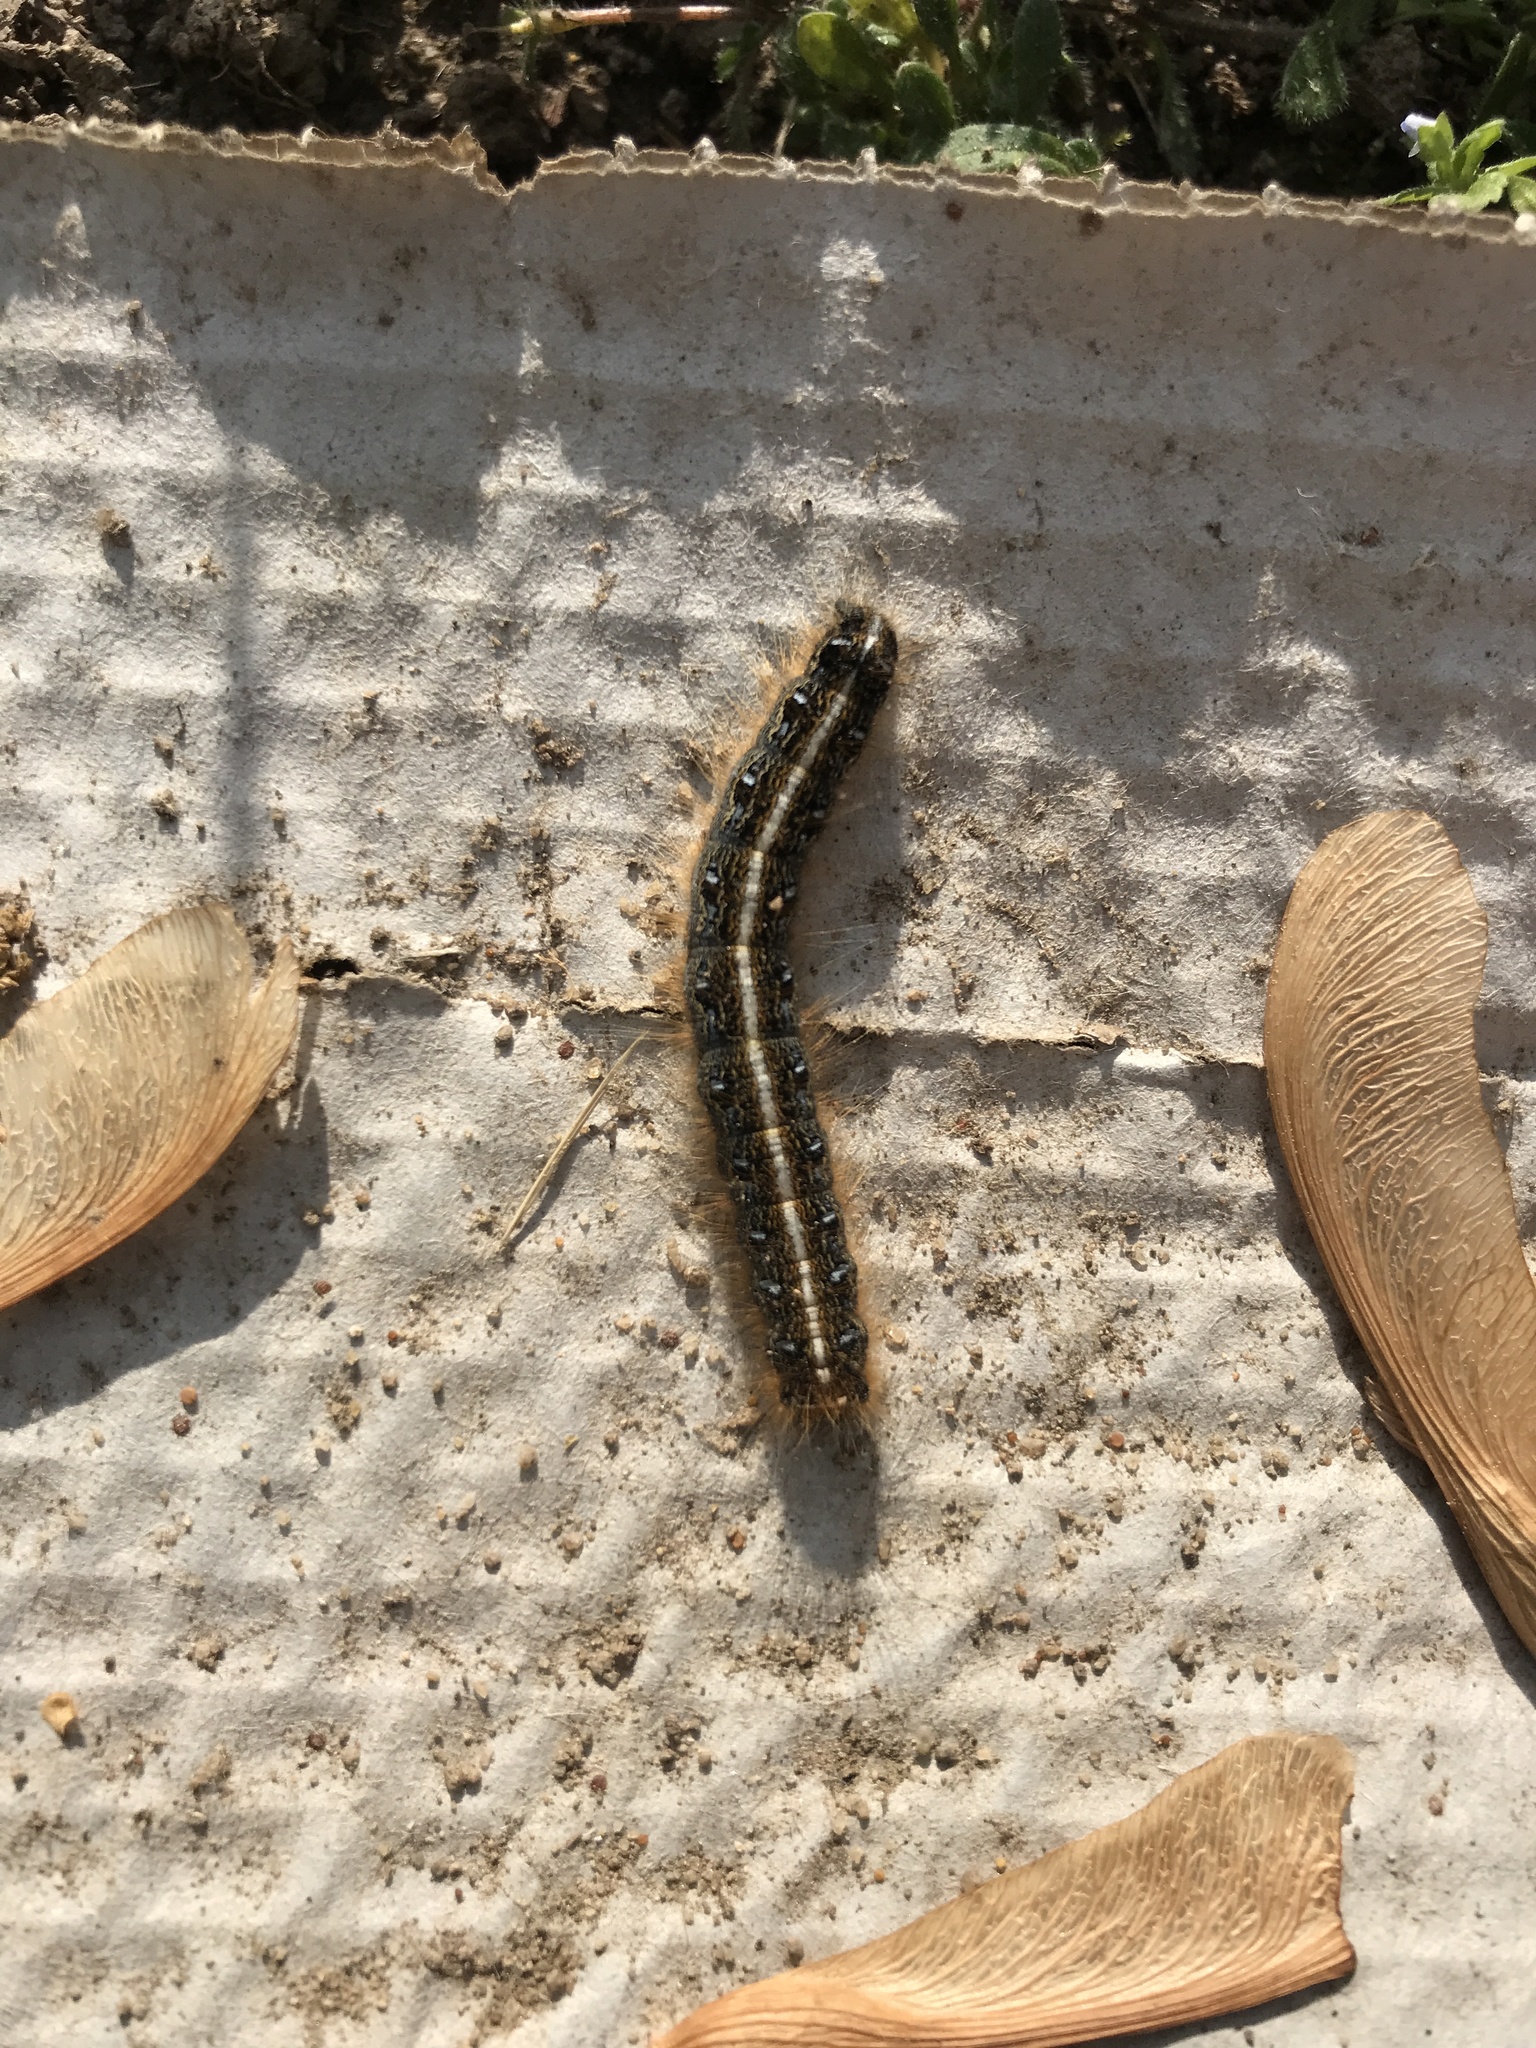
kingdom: Animalia
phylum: Arthropoda
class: Insecta
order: Lepidoptera
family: Lasiocampidae
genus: Malacosoma
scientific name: Malacosoma americana
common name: Eastern tent caterpillar moth
